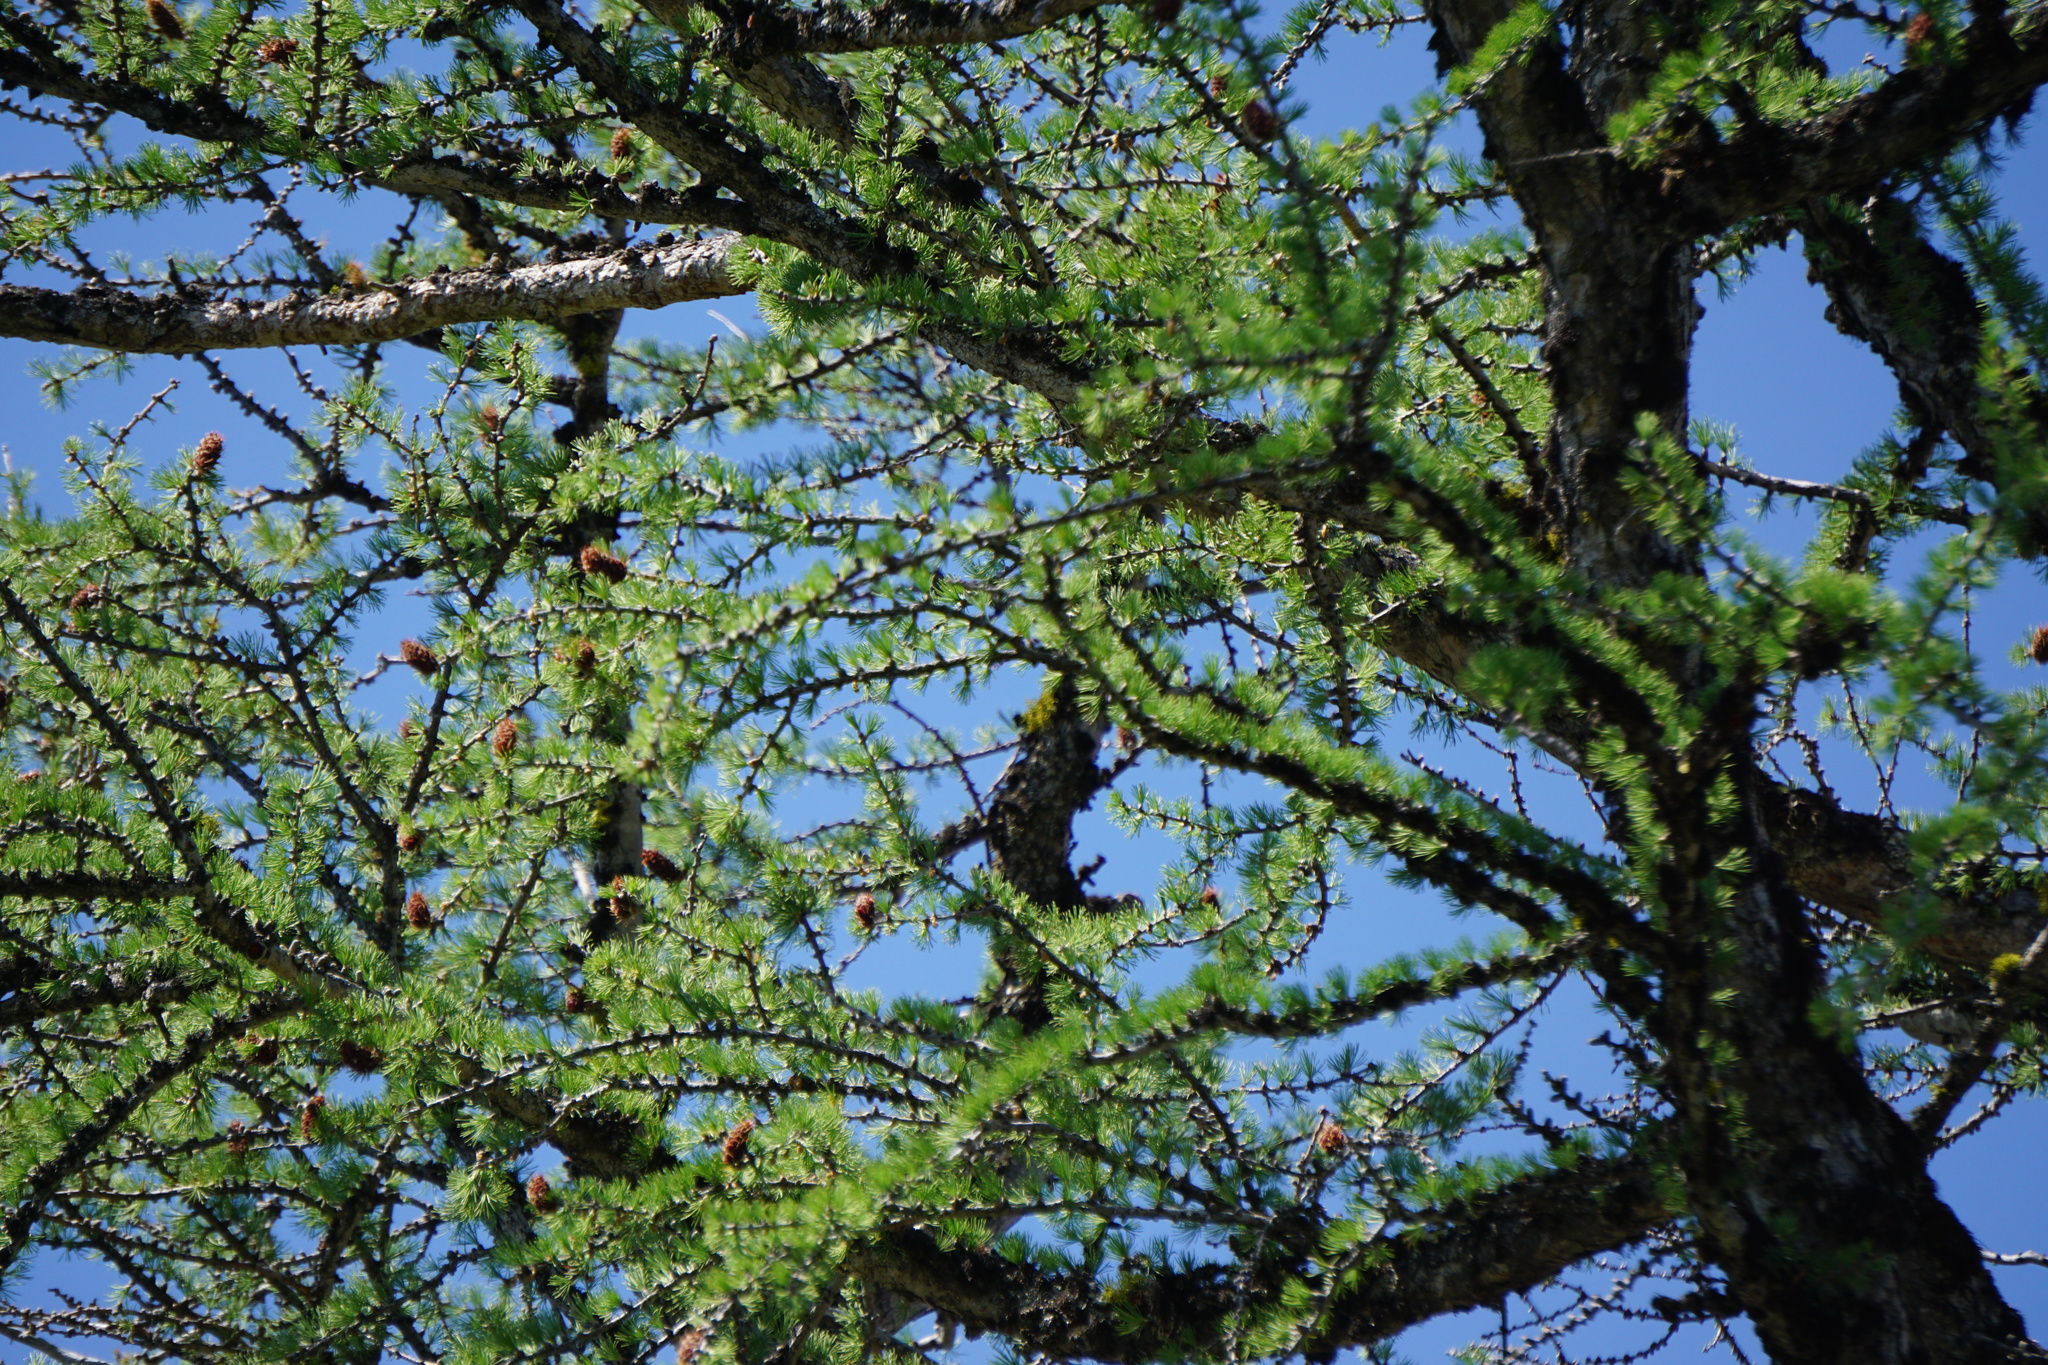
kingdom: Plantae
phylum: Tracheophyta
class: Pinopsida
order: Pinales
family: Pinaceae
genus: Larix
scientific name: Larix lyallii
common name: Alpine larch
